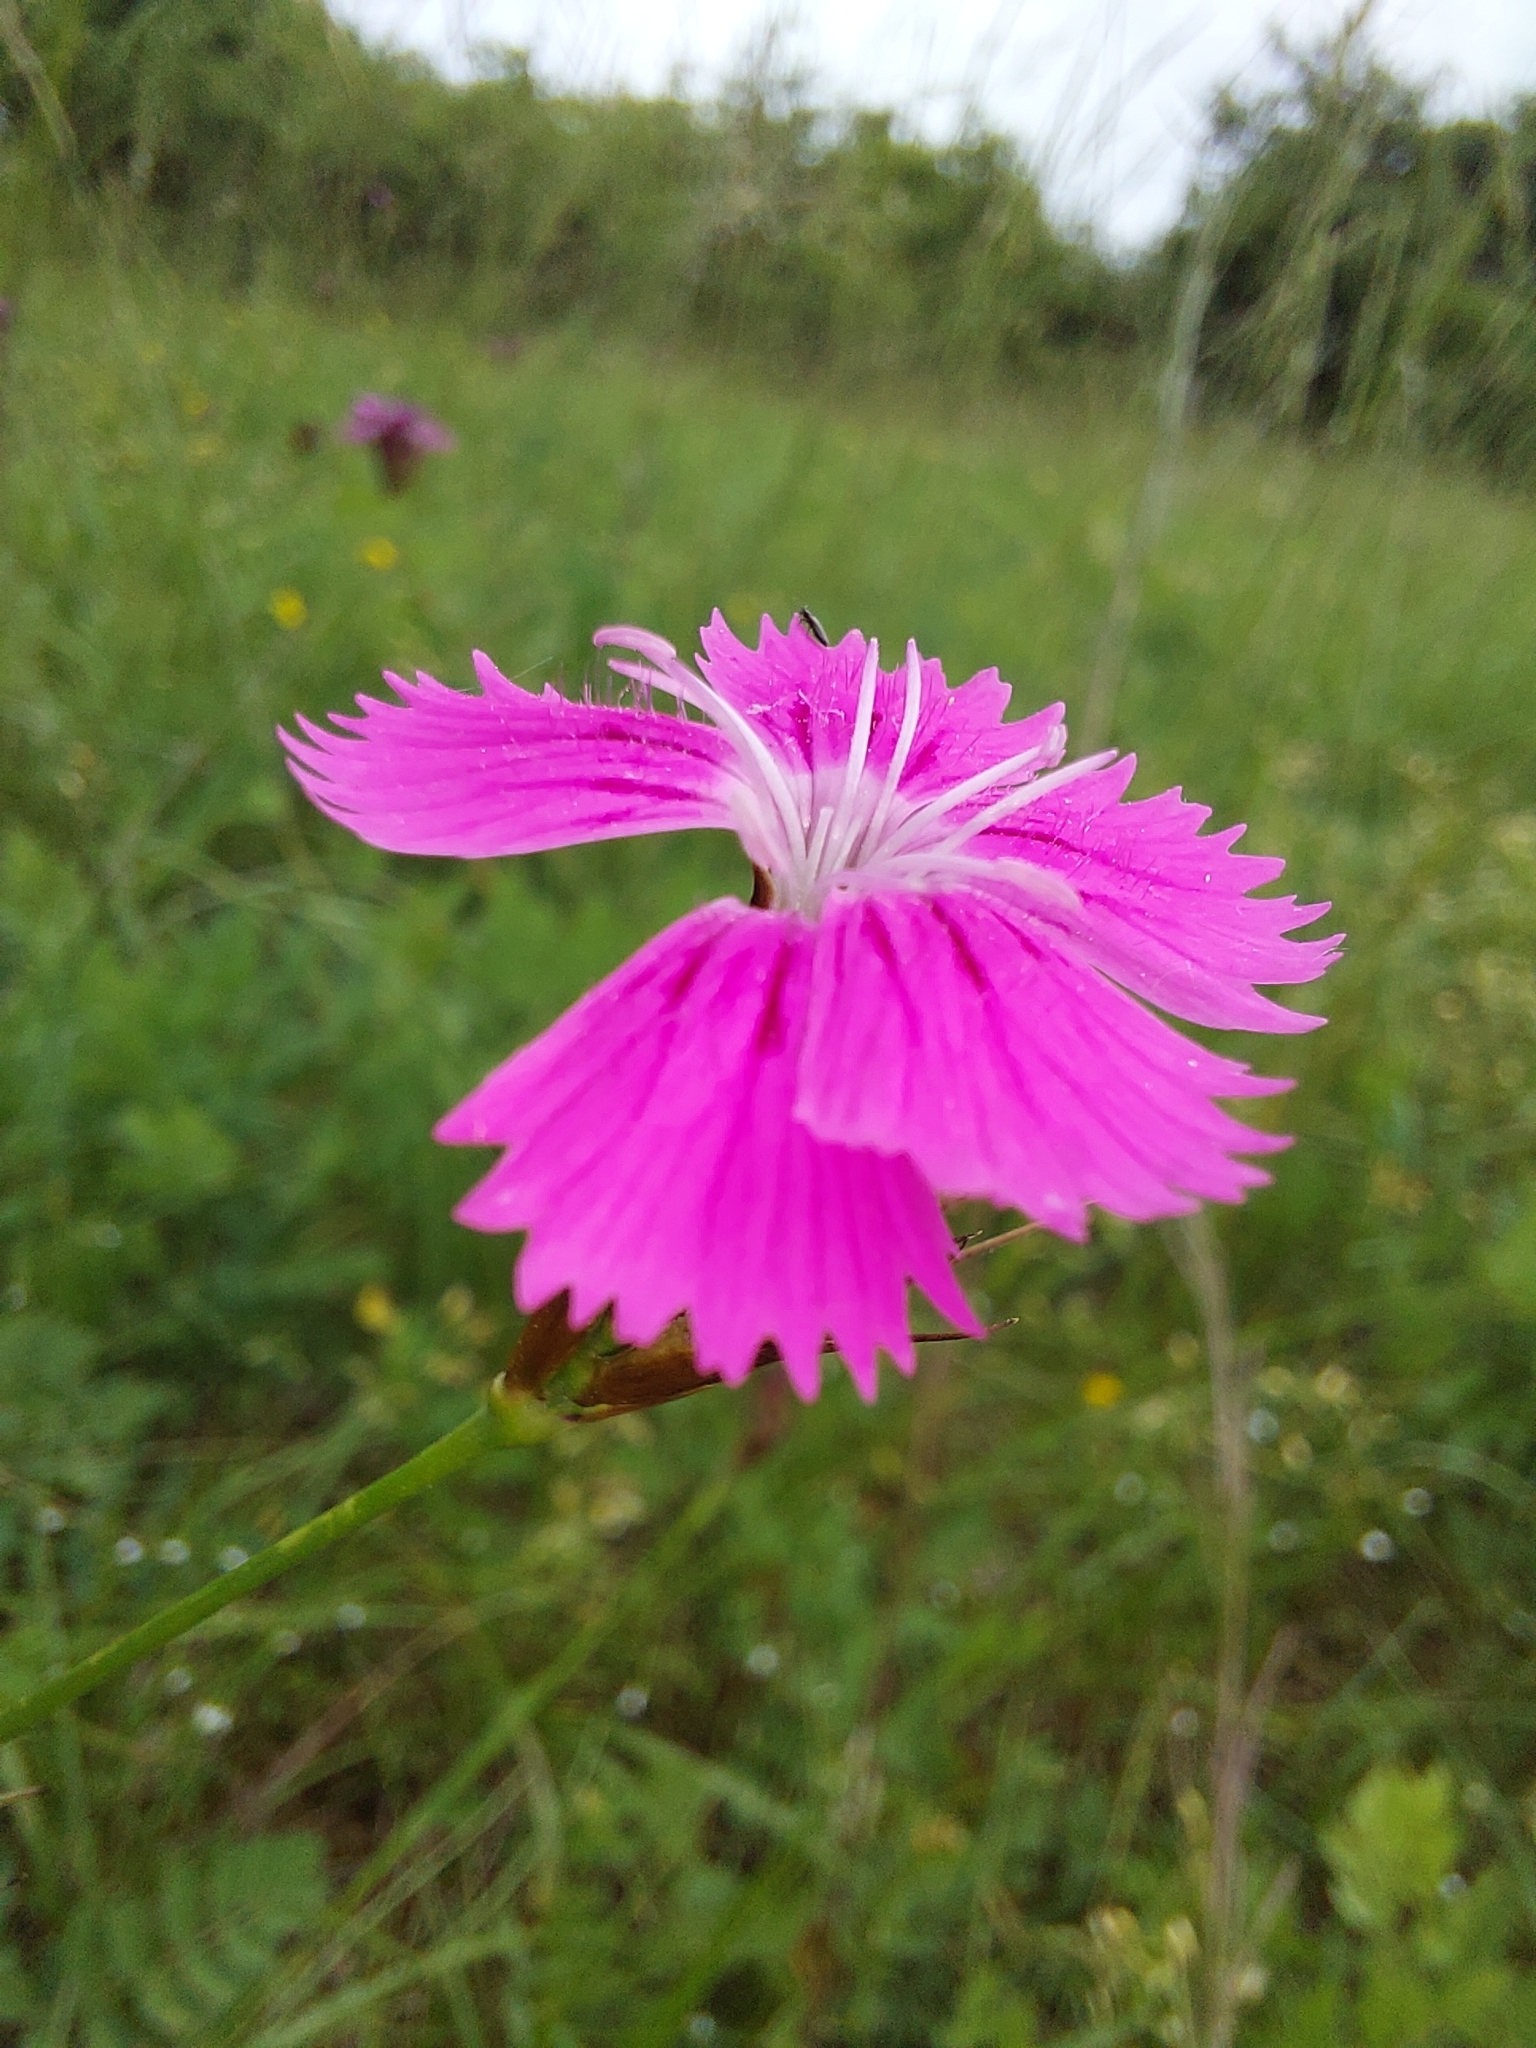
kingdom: Plantae
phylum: Tracheophyta
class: Magnoliopsida
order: Caryophyllales
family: Caryophyllaceae
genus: Dianthus
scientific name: Dianthus carthusianorum
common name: Carthusian pink
